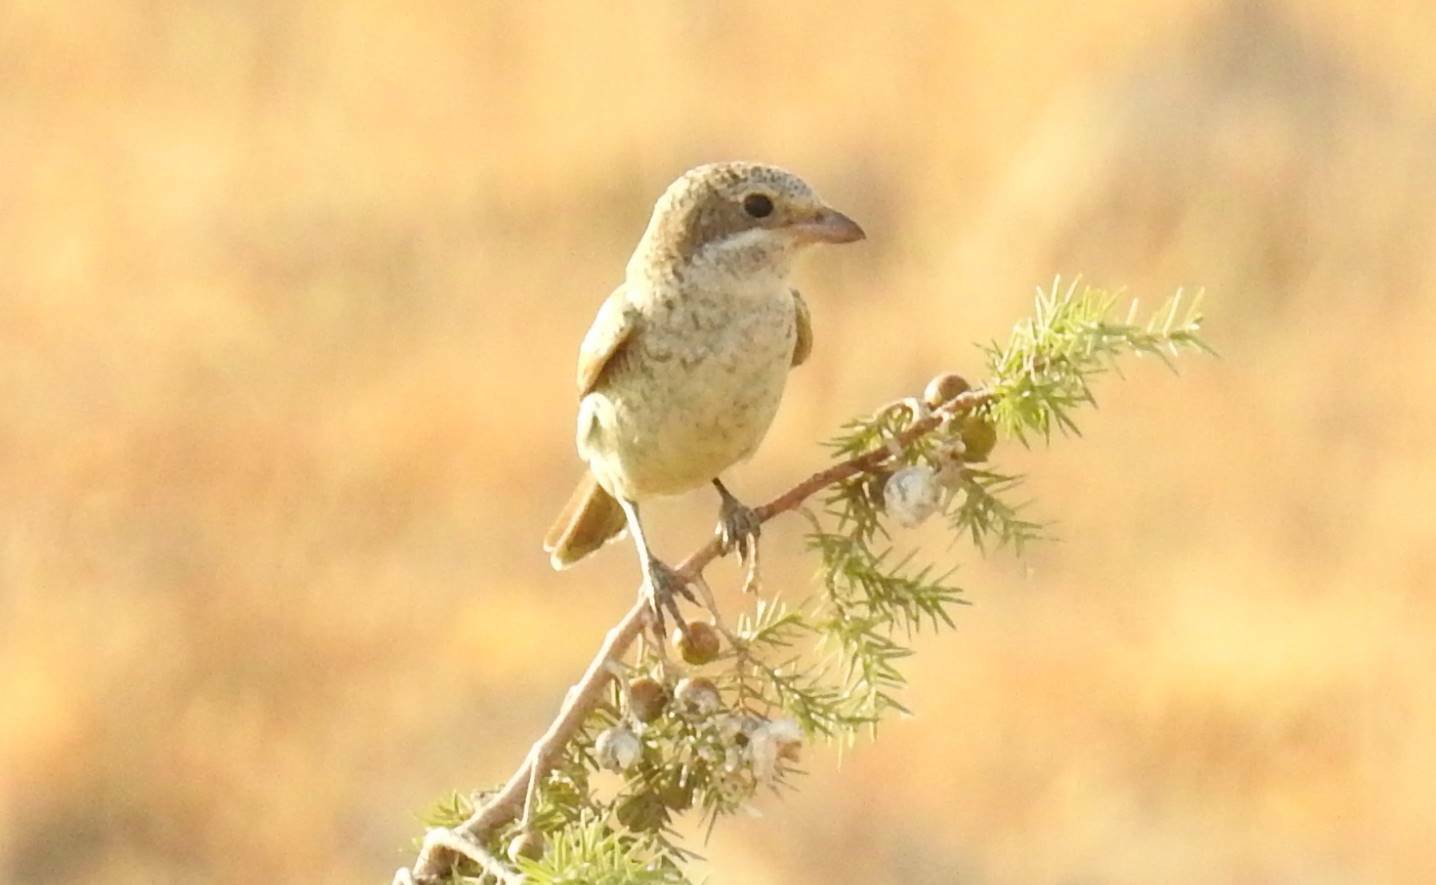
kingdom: Animalia
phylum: Chordata
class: Aves
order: Passeriformes
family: Laniidae
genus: Lanius
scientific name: Lanius senator
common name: Woodchat shrike
